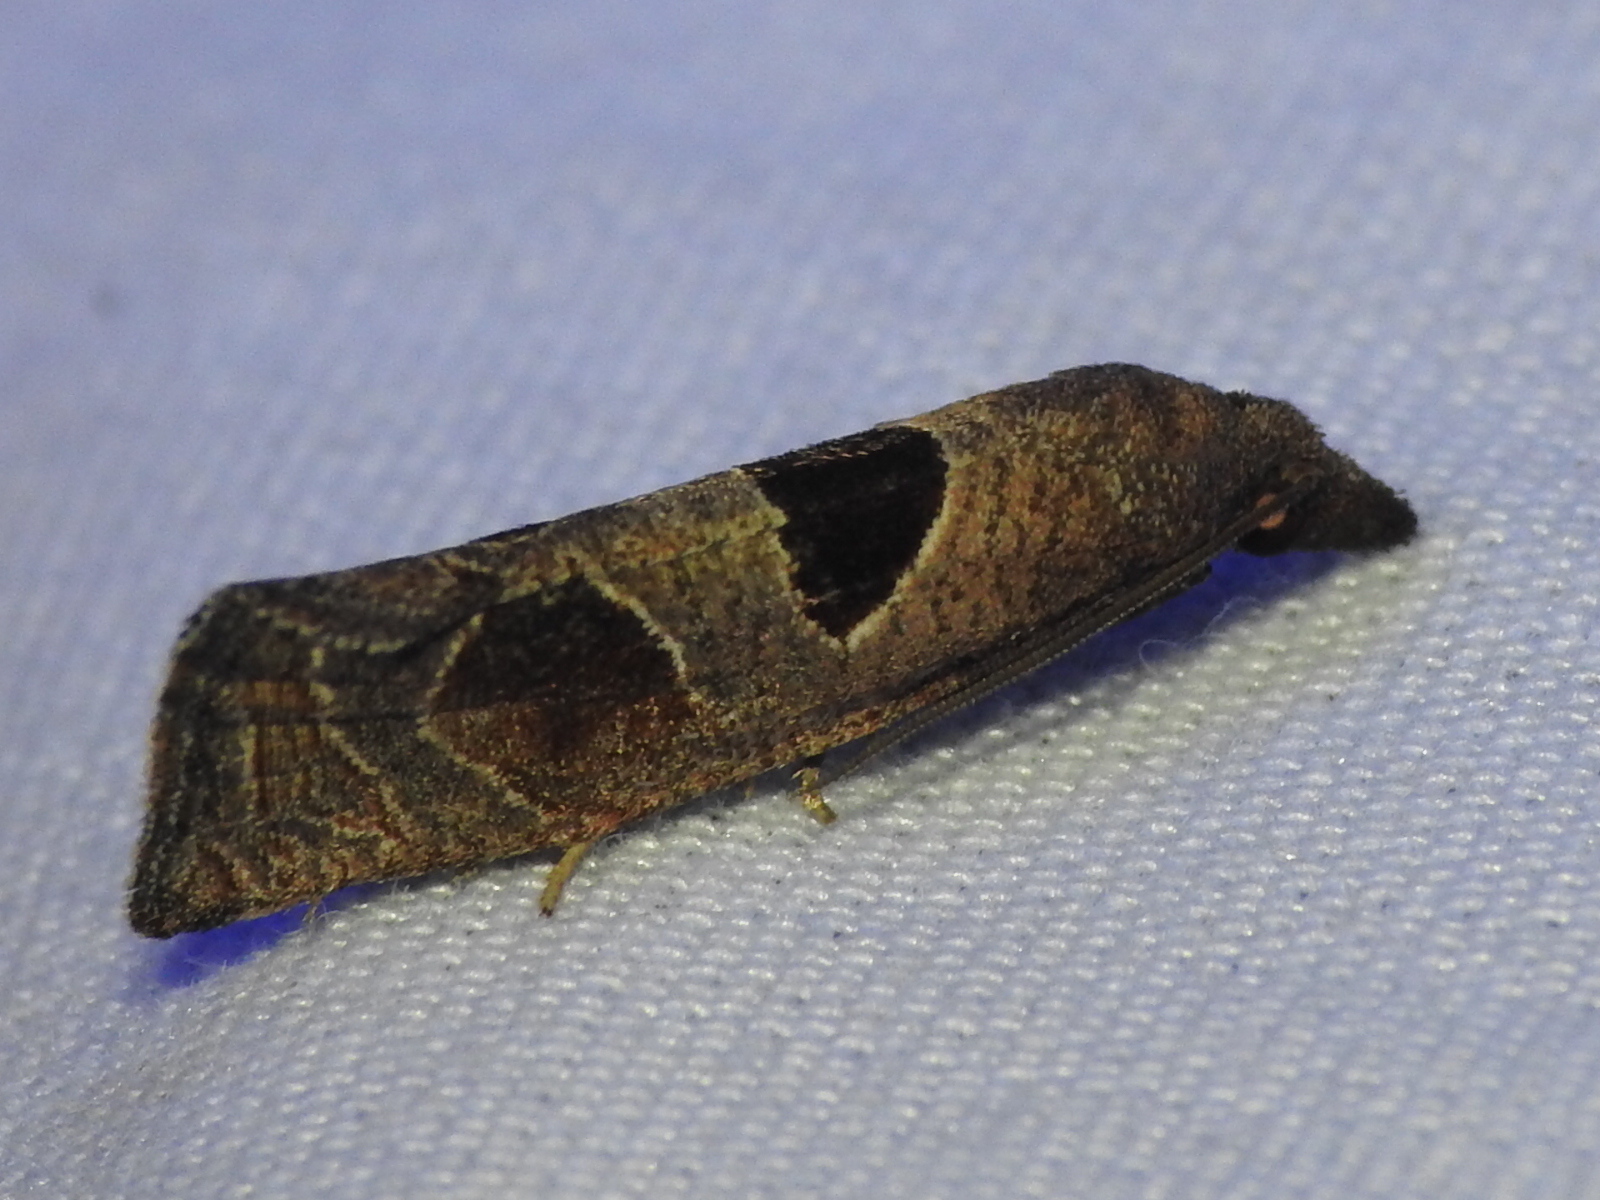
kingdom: Animalia
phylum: Arthropoda
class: Insecta
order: Lepidoptera
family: Tortricidae
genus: Pelochrista
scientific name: Pelochrista dorsisignatana
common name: Triangle-backed pelochrista moth
